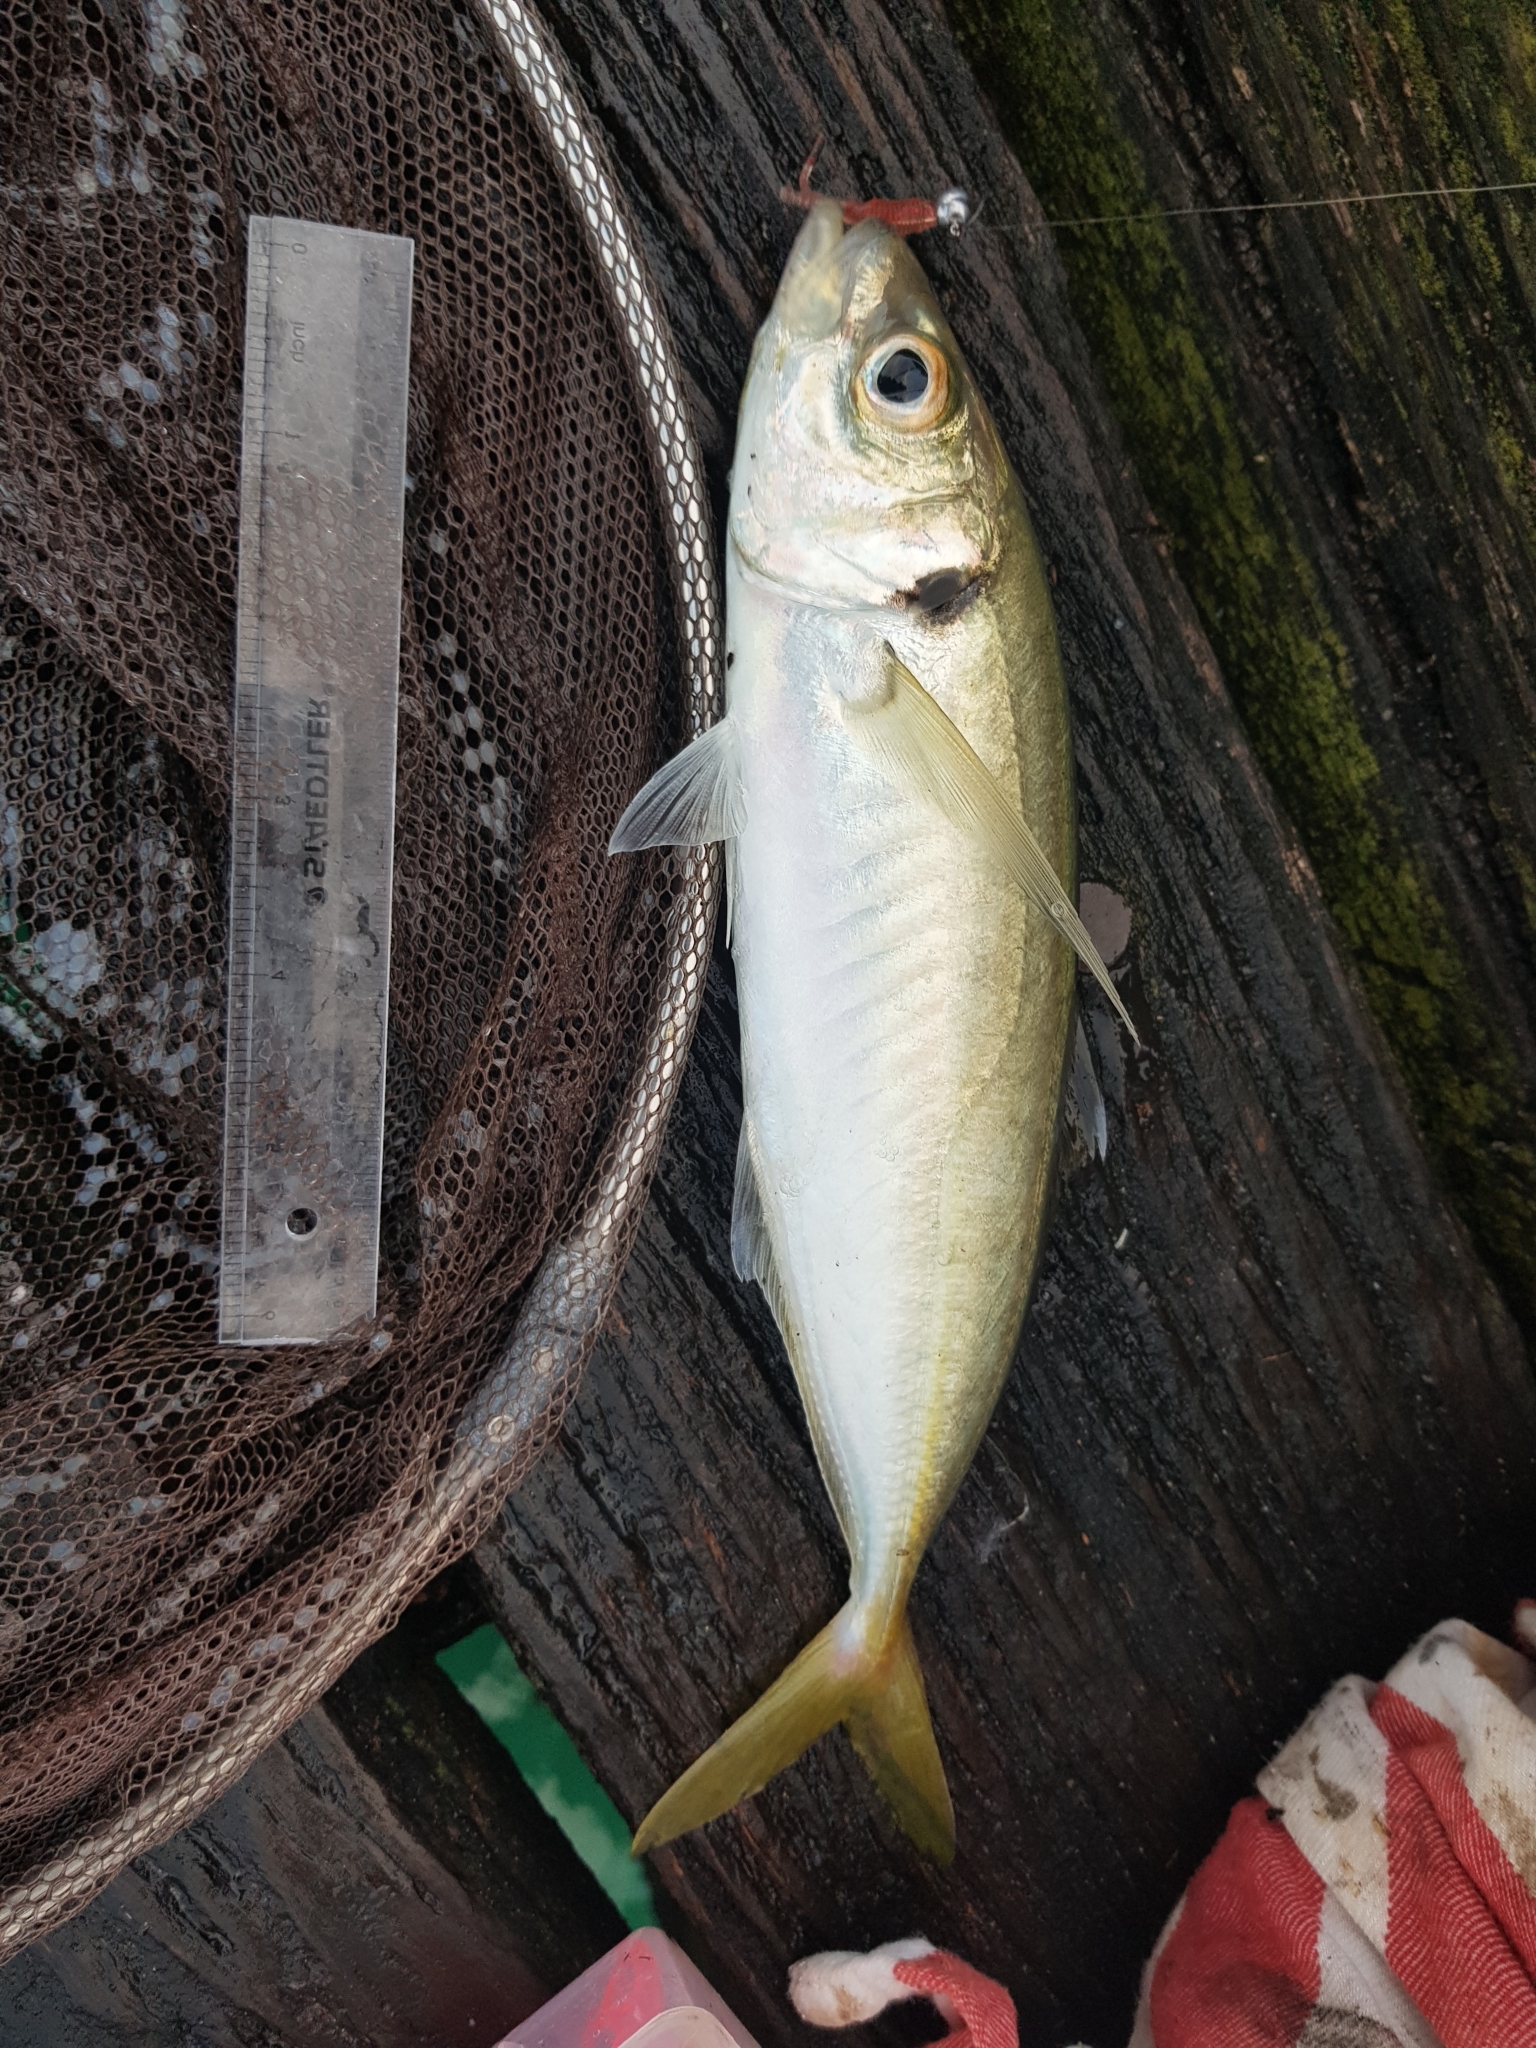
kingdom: Animalia
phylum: Chordata
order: Perciformes
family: Carangidae
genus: Trachurus
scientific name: Trachurus novaezelandiae
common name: Yellowtail horse mackerel
